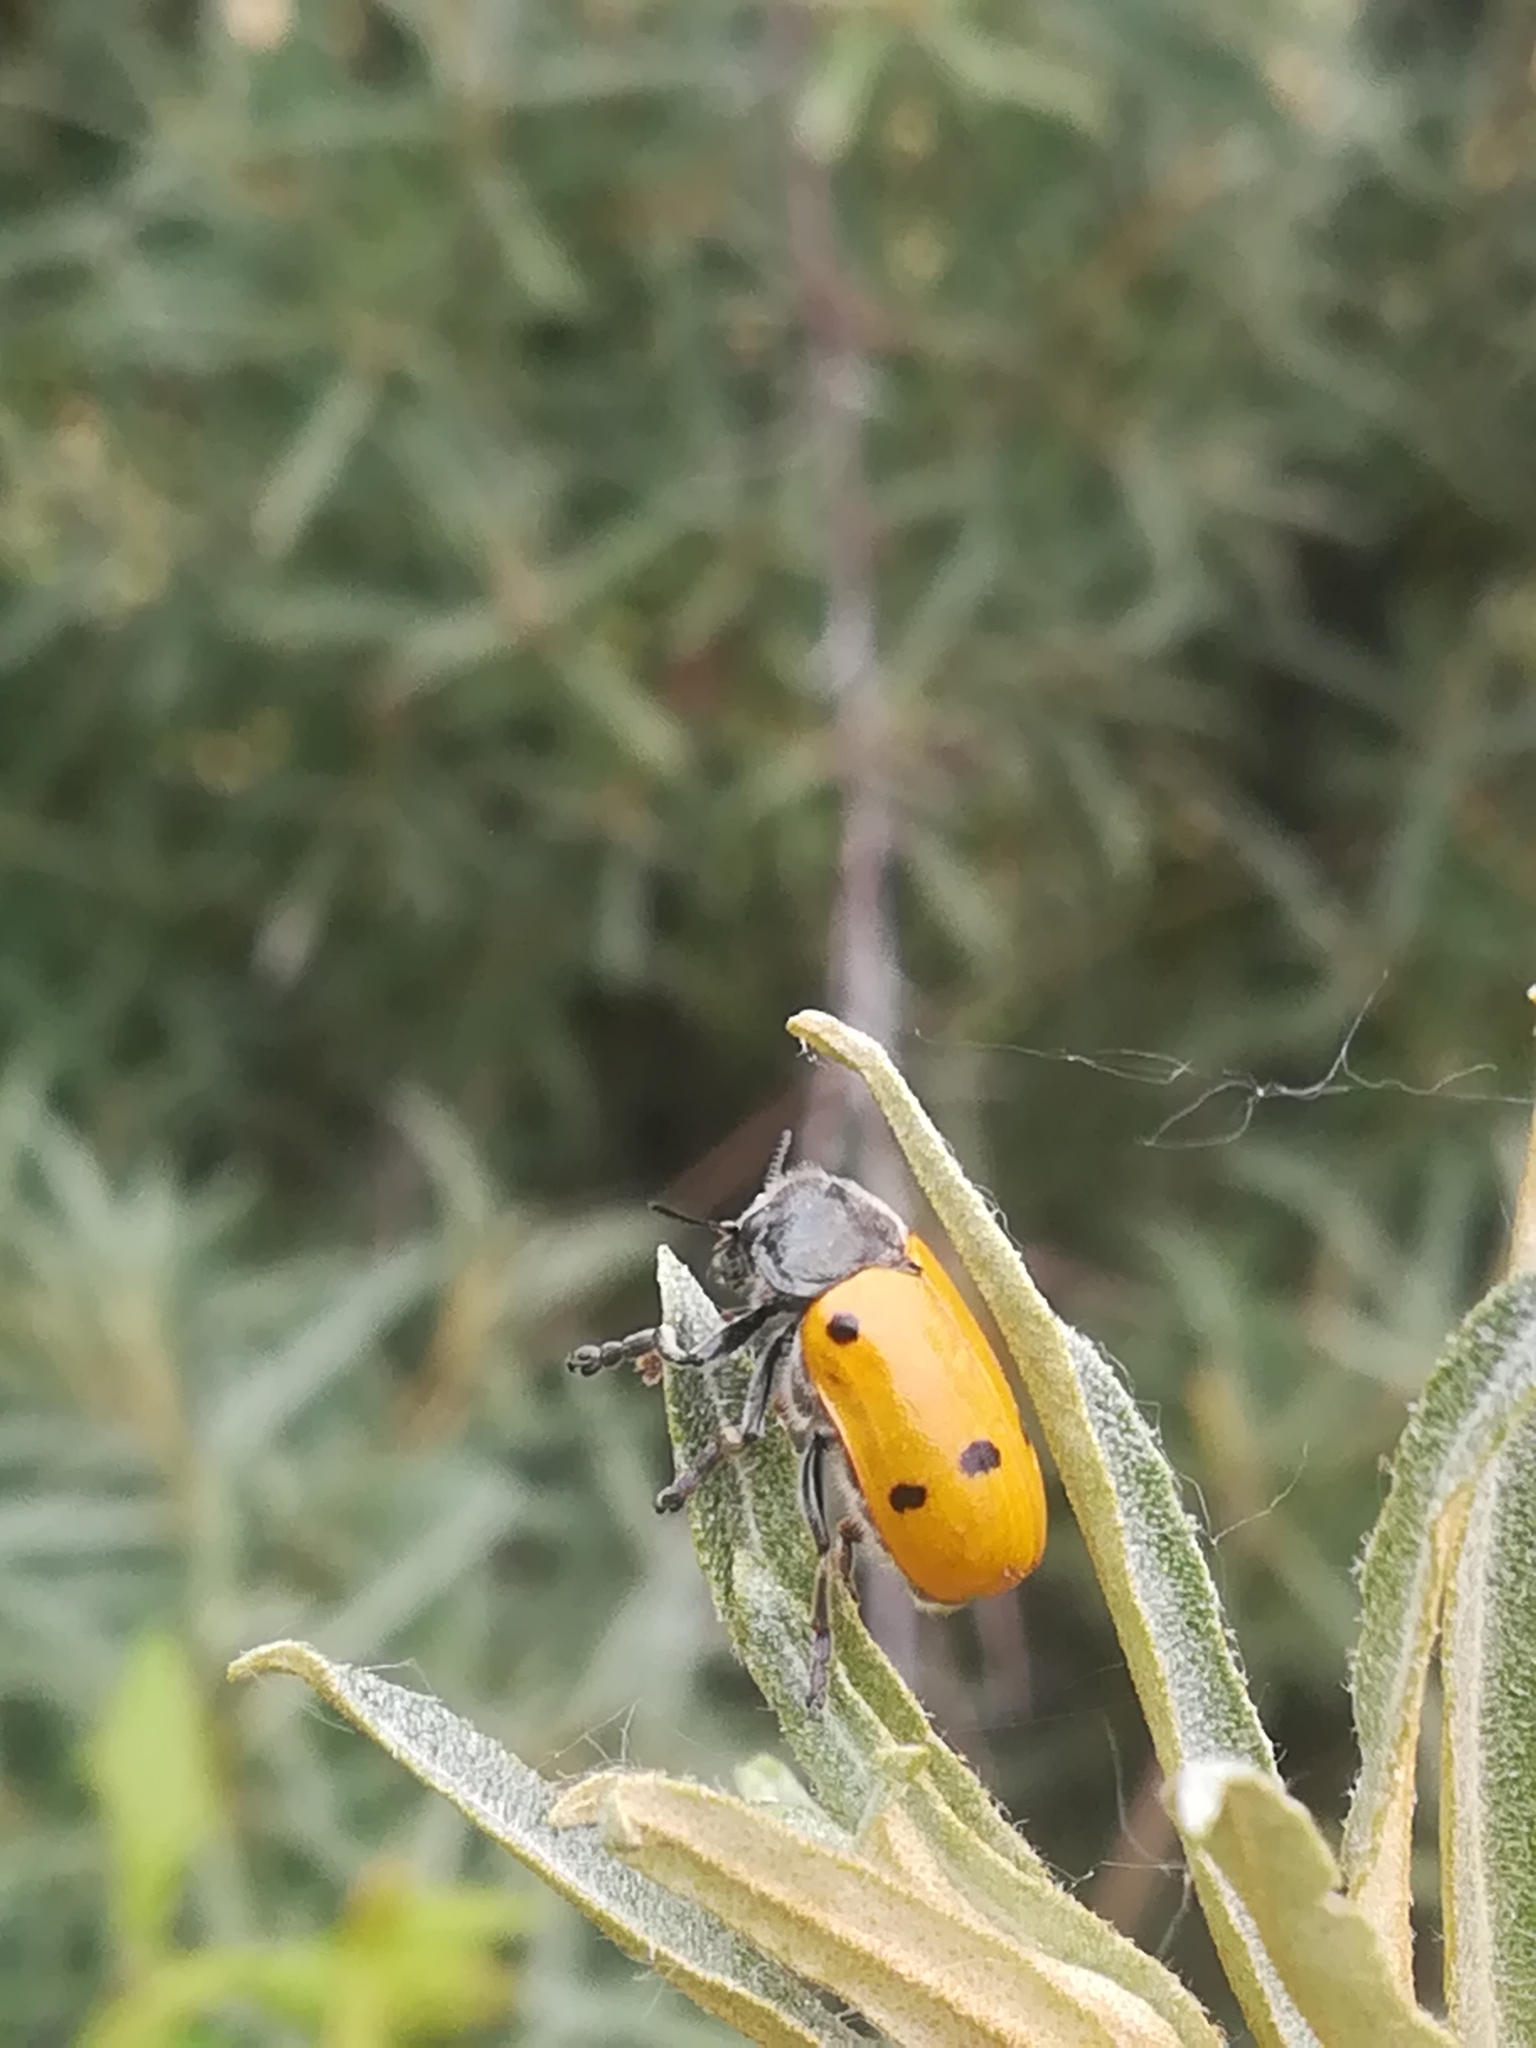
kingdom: Animalia
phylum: Arthropoda
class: Insecta
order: Coleoptera
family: Chrysomelidae
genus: Lachnaia
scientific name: Lachnaia italica
